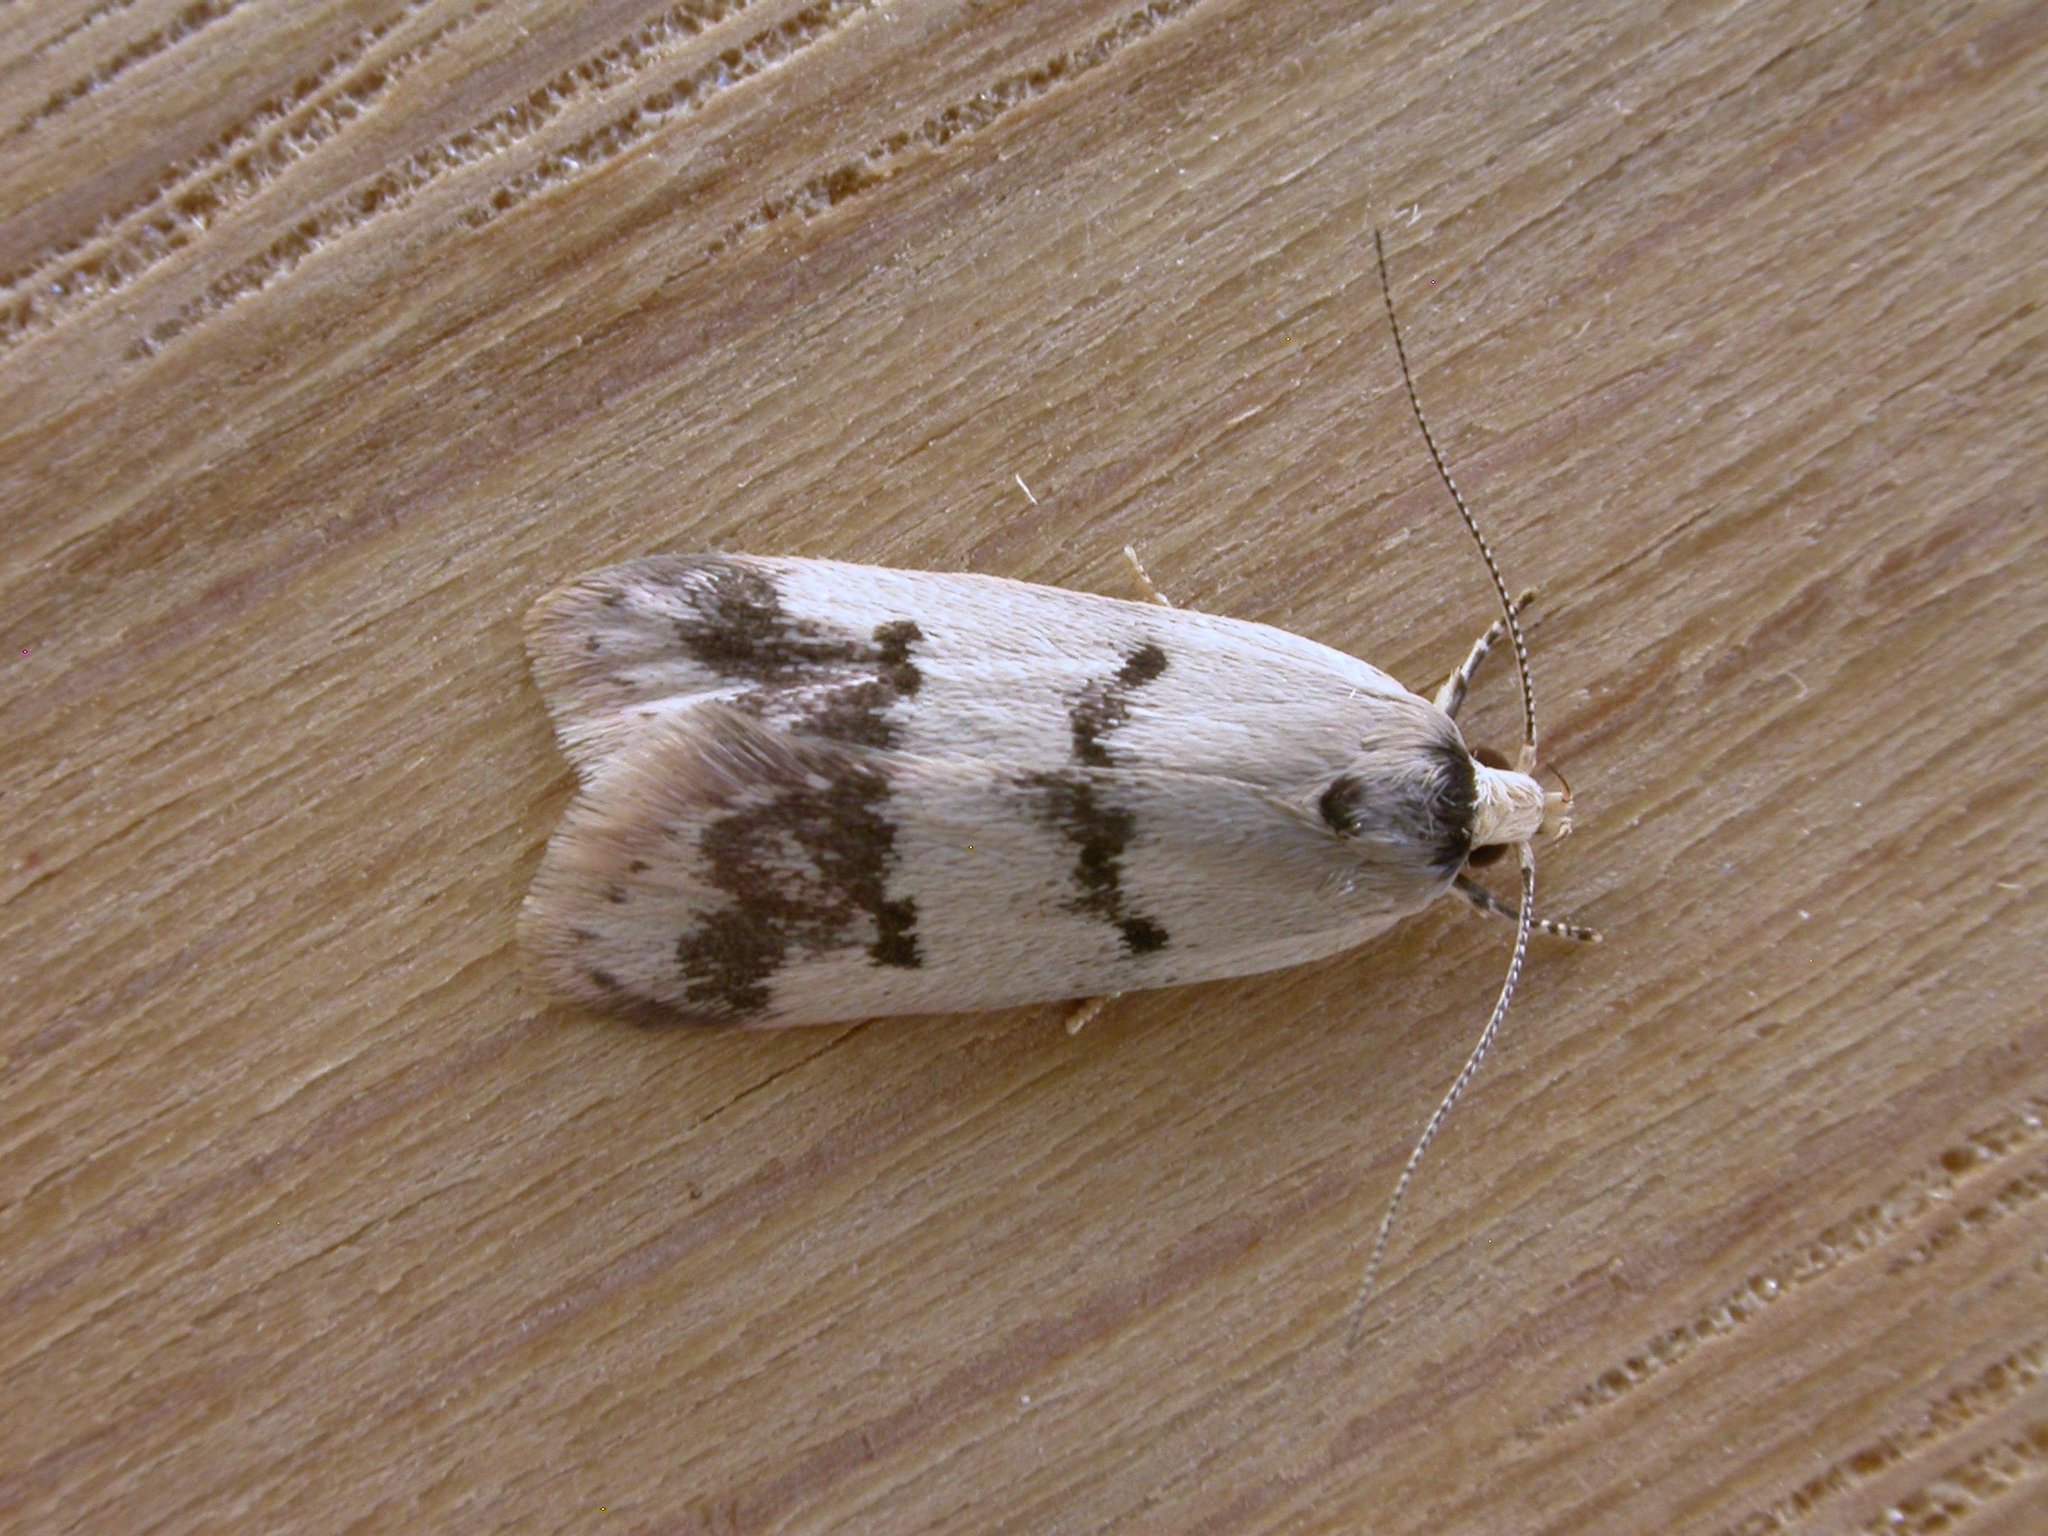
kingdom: Animalia
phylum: Arthropoda
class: Insecta
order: Lepidoptera
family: Oecophoridae
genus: Compsotropha
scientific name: Compsotropha strophiella
